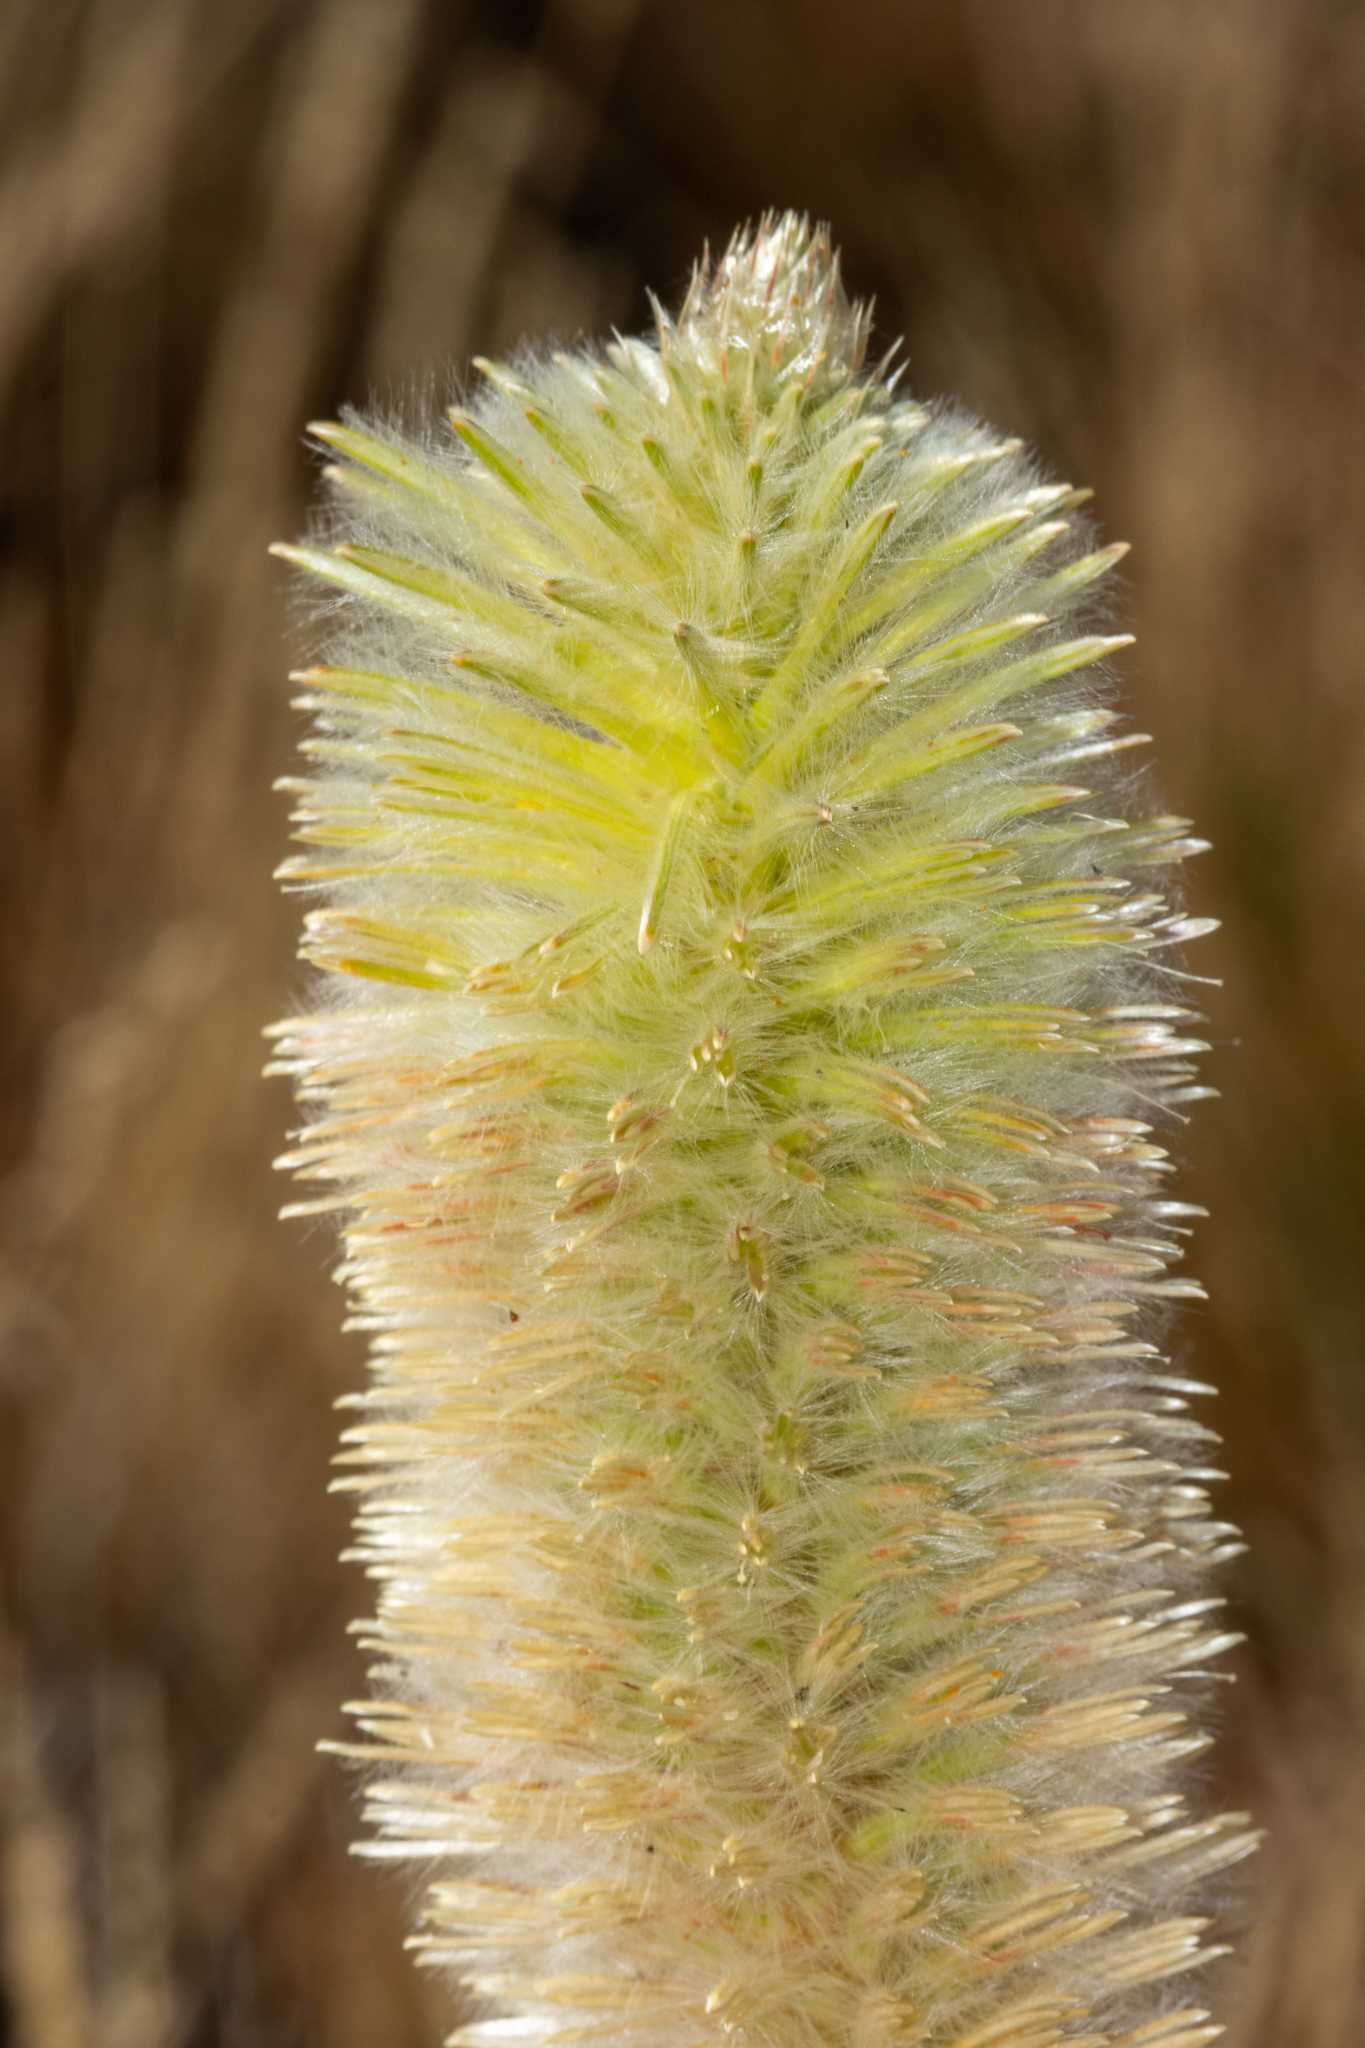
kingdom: Plantae
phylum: Tracheophyta
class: Magnoliopsida
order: Caryophyllales
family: Amaranthaceae
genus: Ptilotus
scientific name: Ptilotus xerophilus
